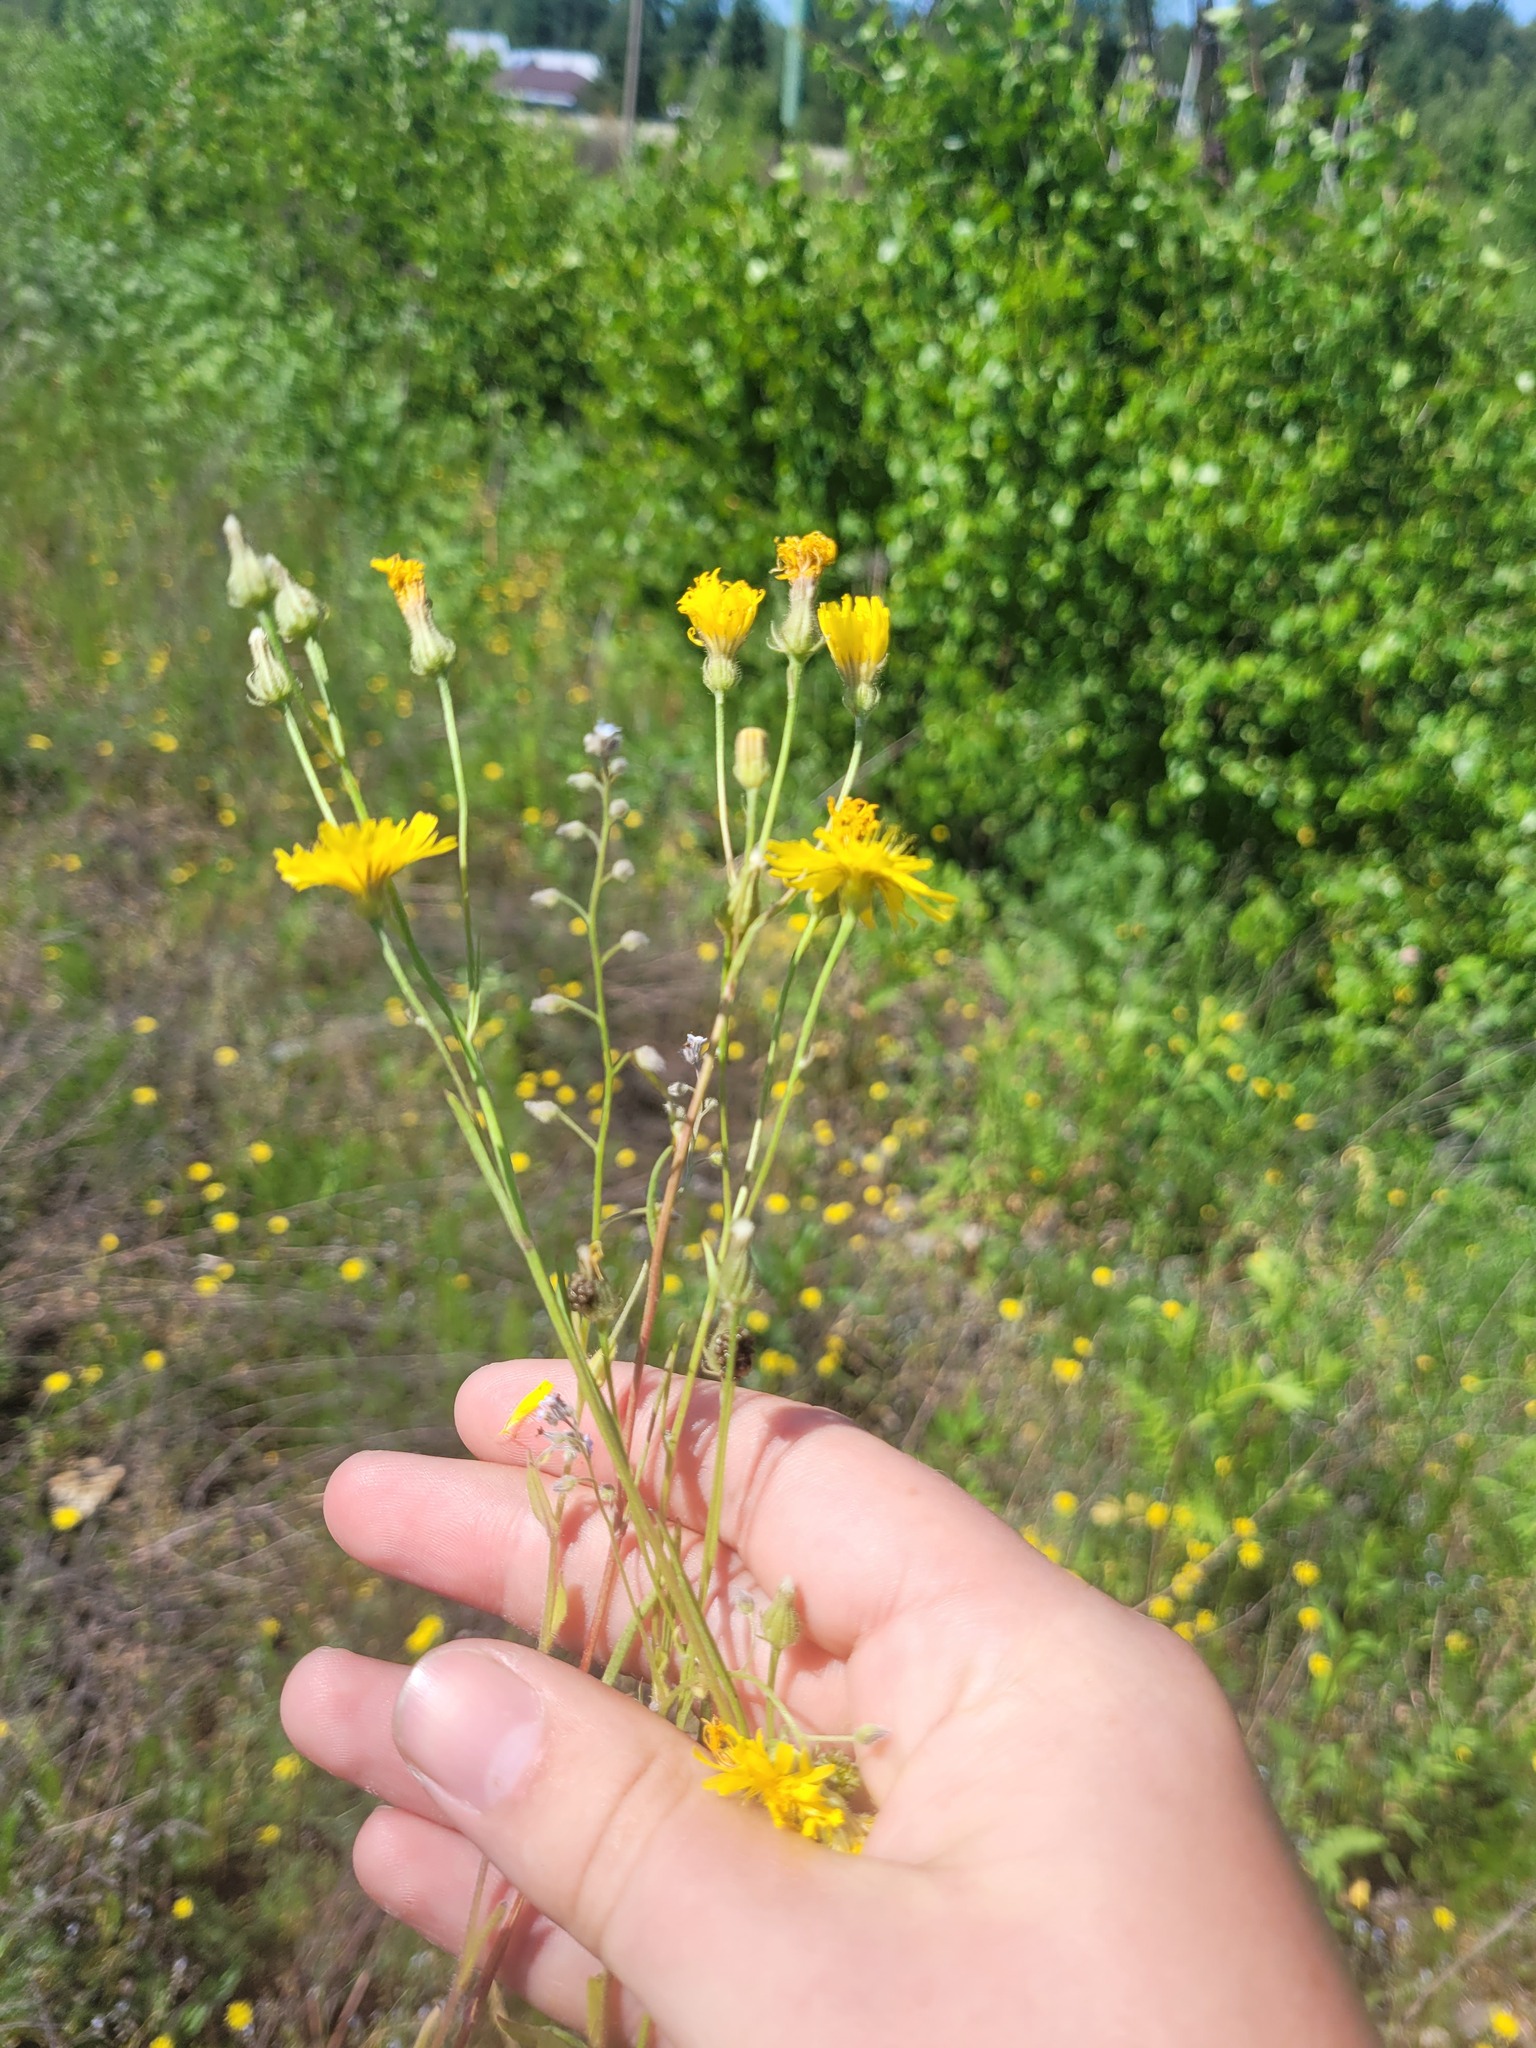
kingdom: Plantae
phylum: Tracheophyta
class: Magnoliopsida
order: Asterales
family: Asteraceae
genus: Crepis
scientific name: Crepis tectorum
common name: Narrow-leaved hawk's-beard
